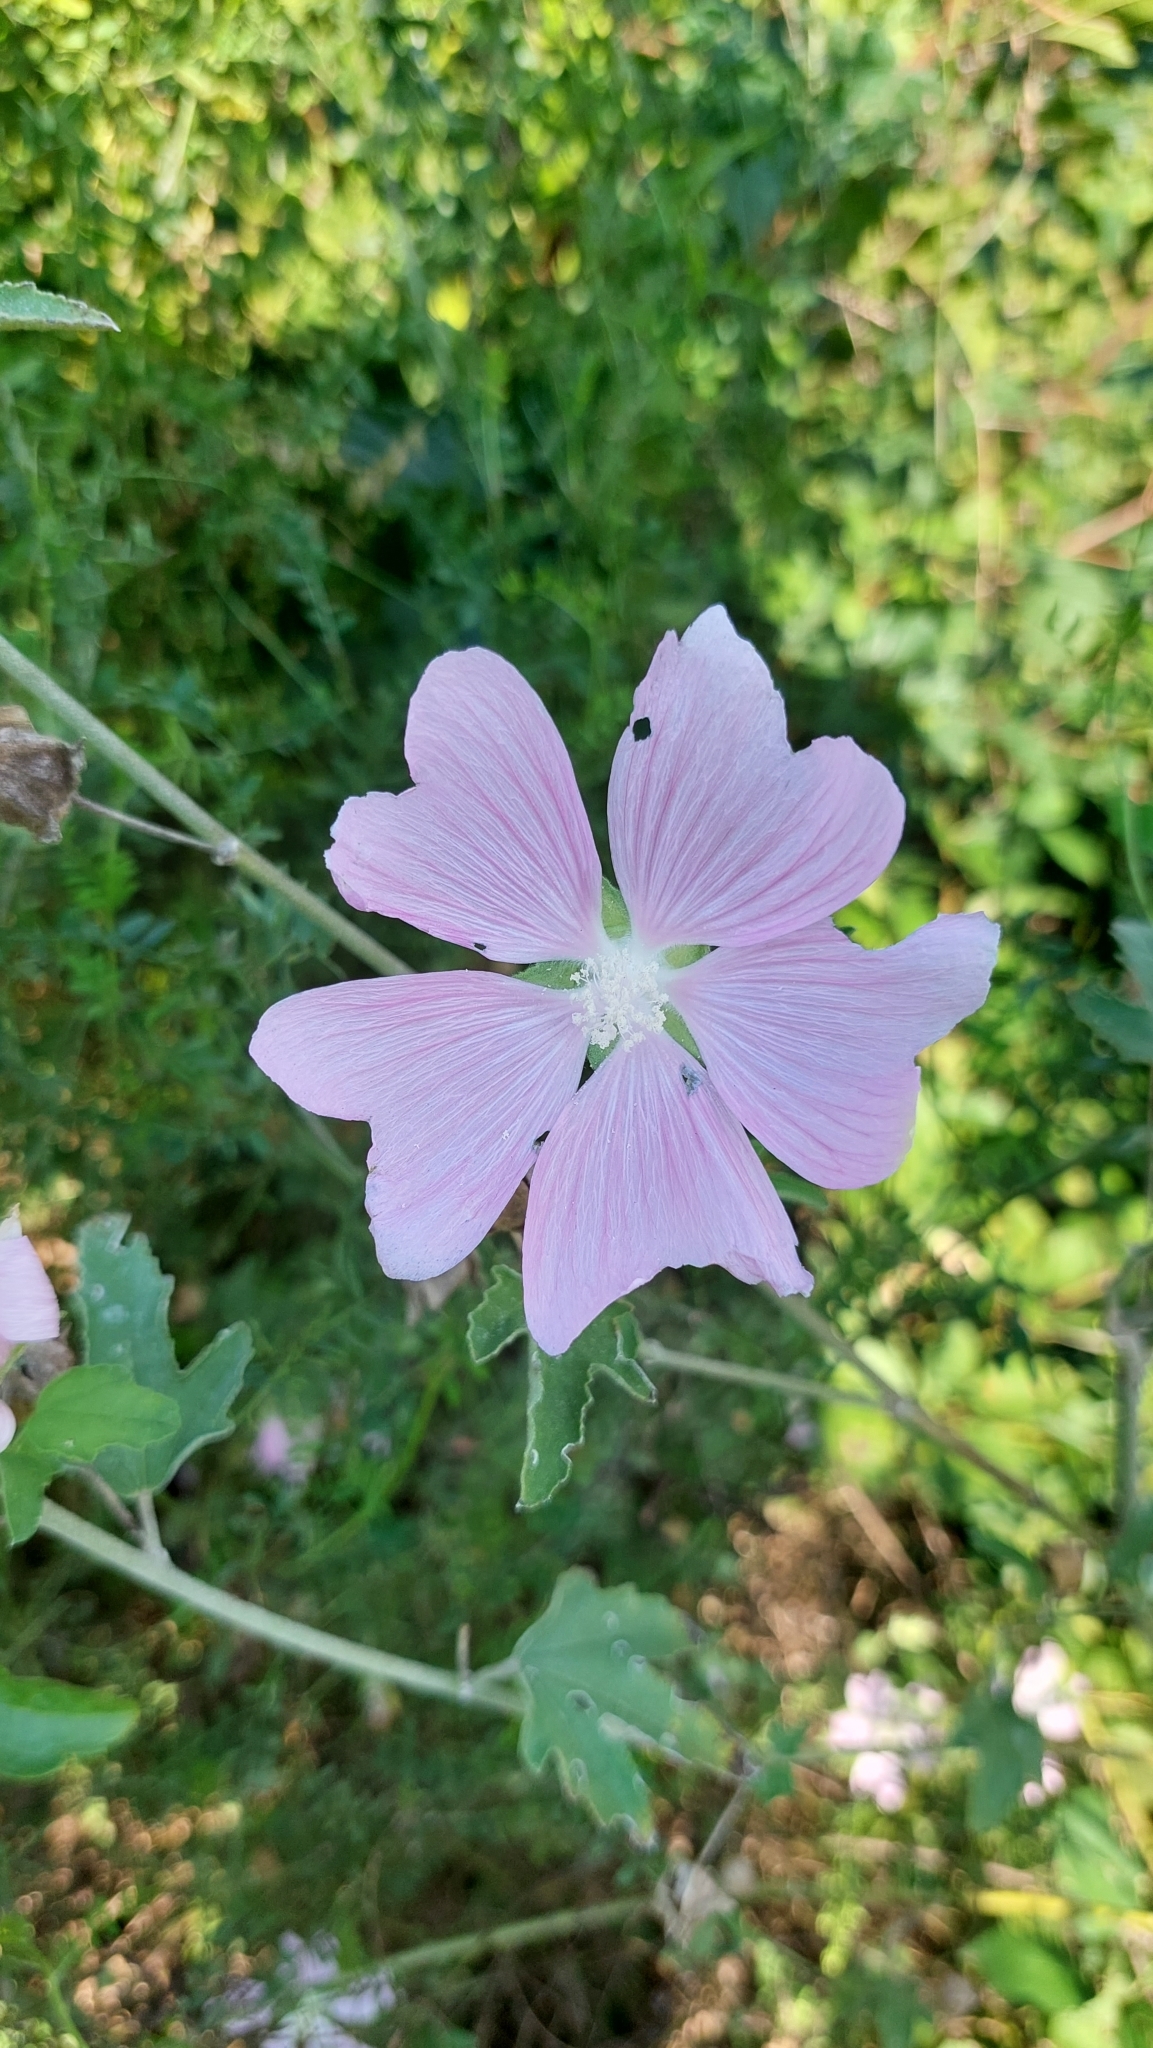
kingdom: Plantae
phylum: Tracheophyta
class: Magnoliopsida
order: Malvales
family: Malvaceae
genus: Malva
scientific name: Malva thuringiaca
